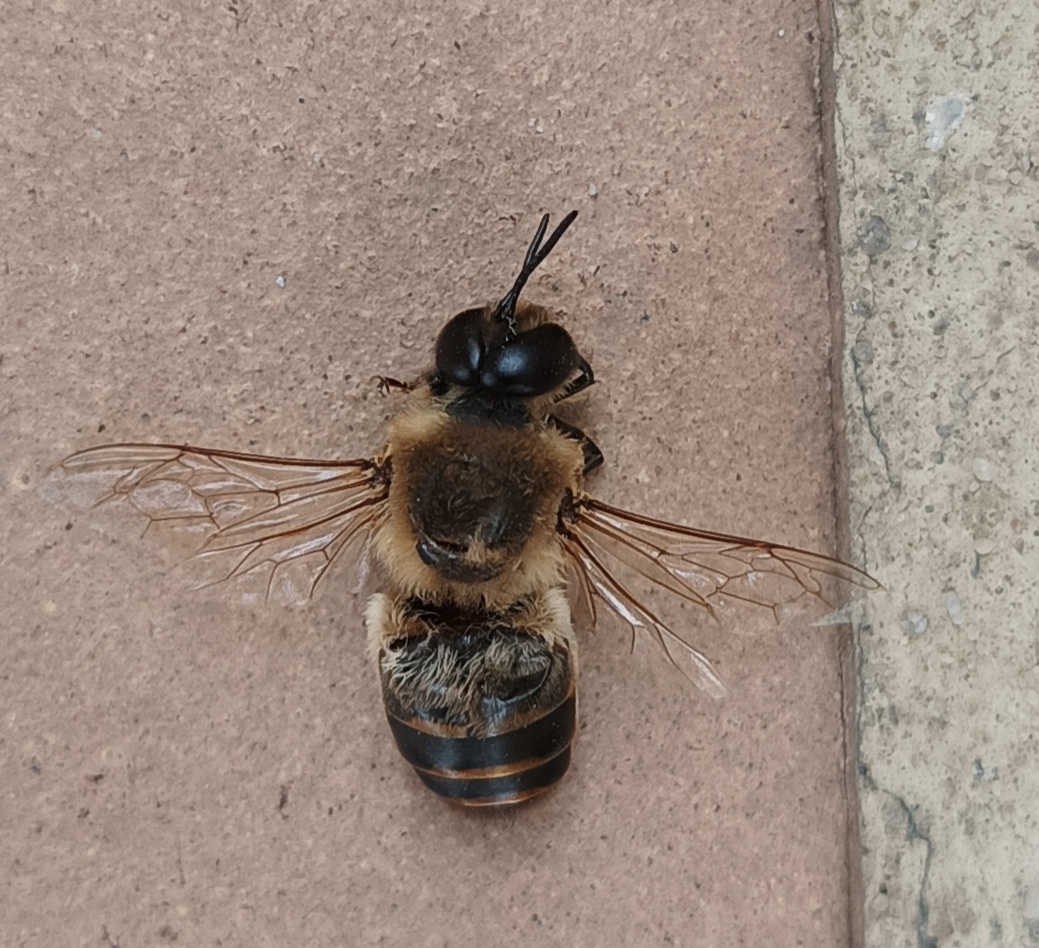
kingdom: Animalia
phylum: Arthropoda
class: Insecta
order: Hymenoptera
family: Apidae
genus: Apis
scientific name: Apis mellifera
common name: Honey bee
